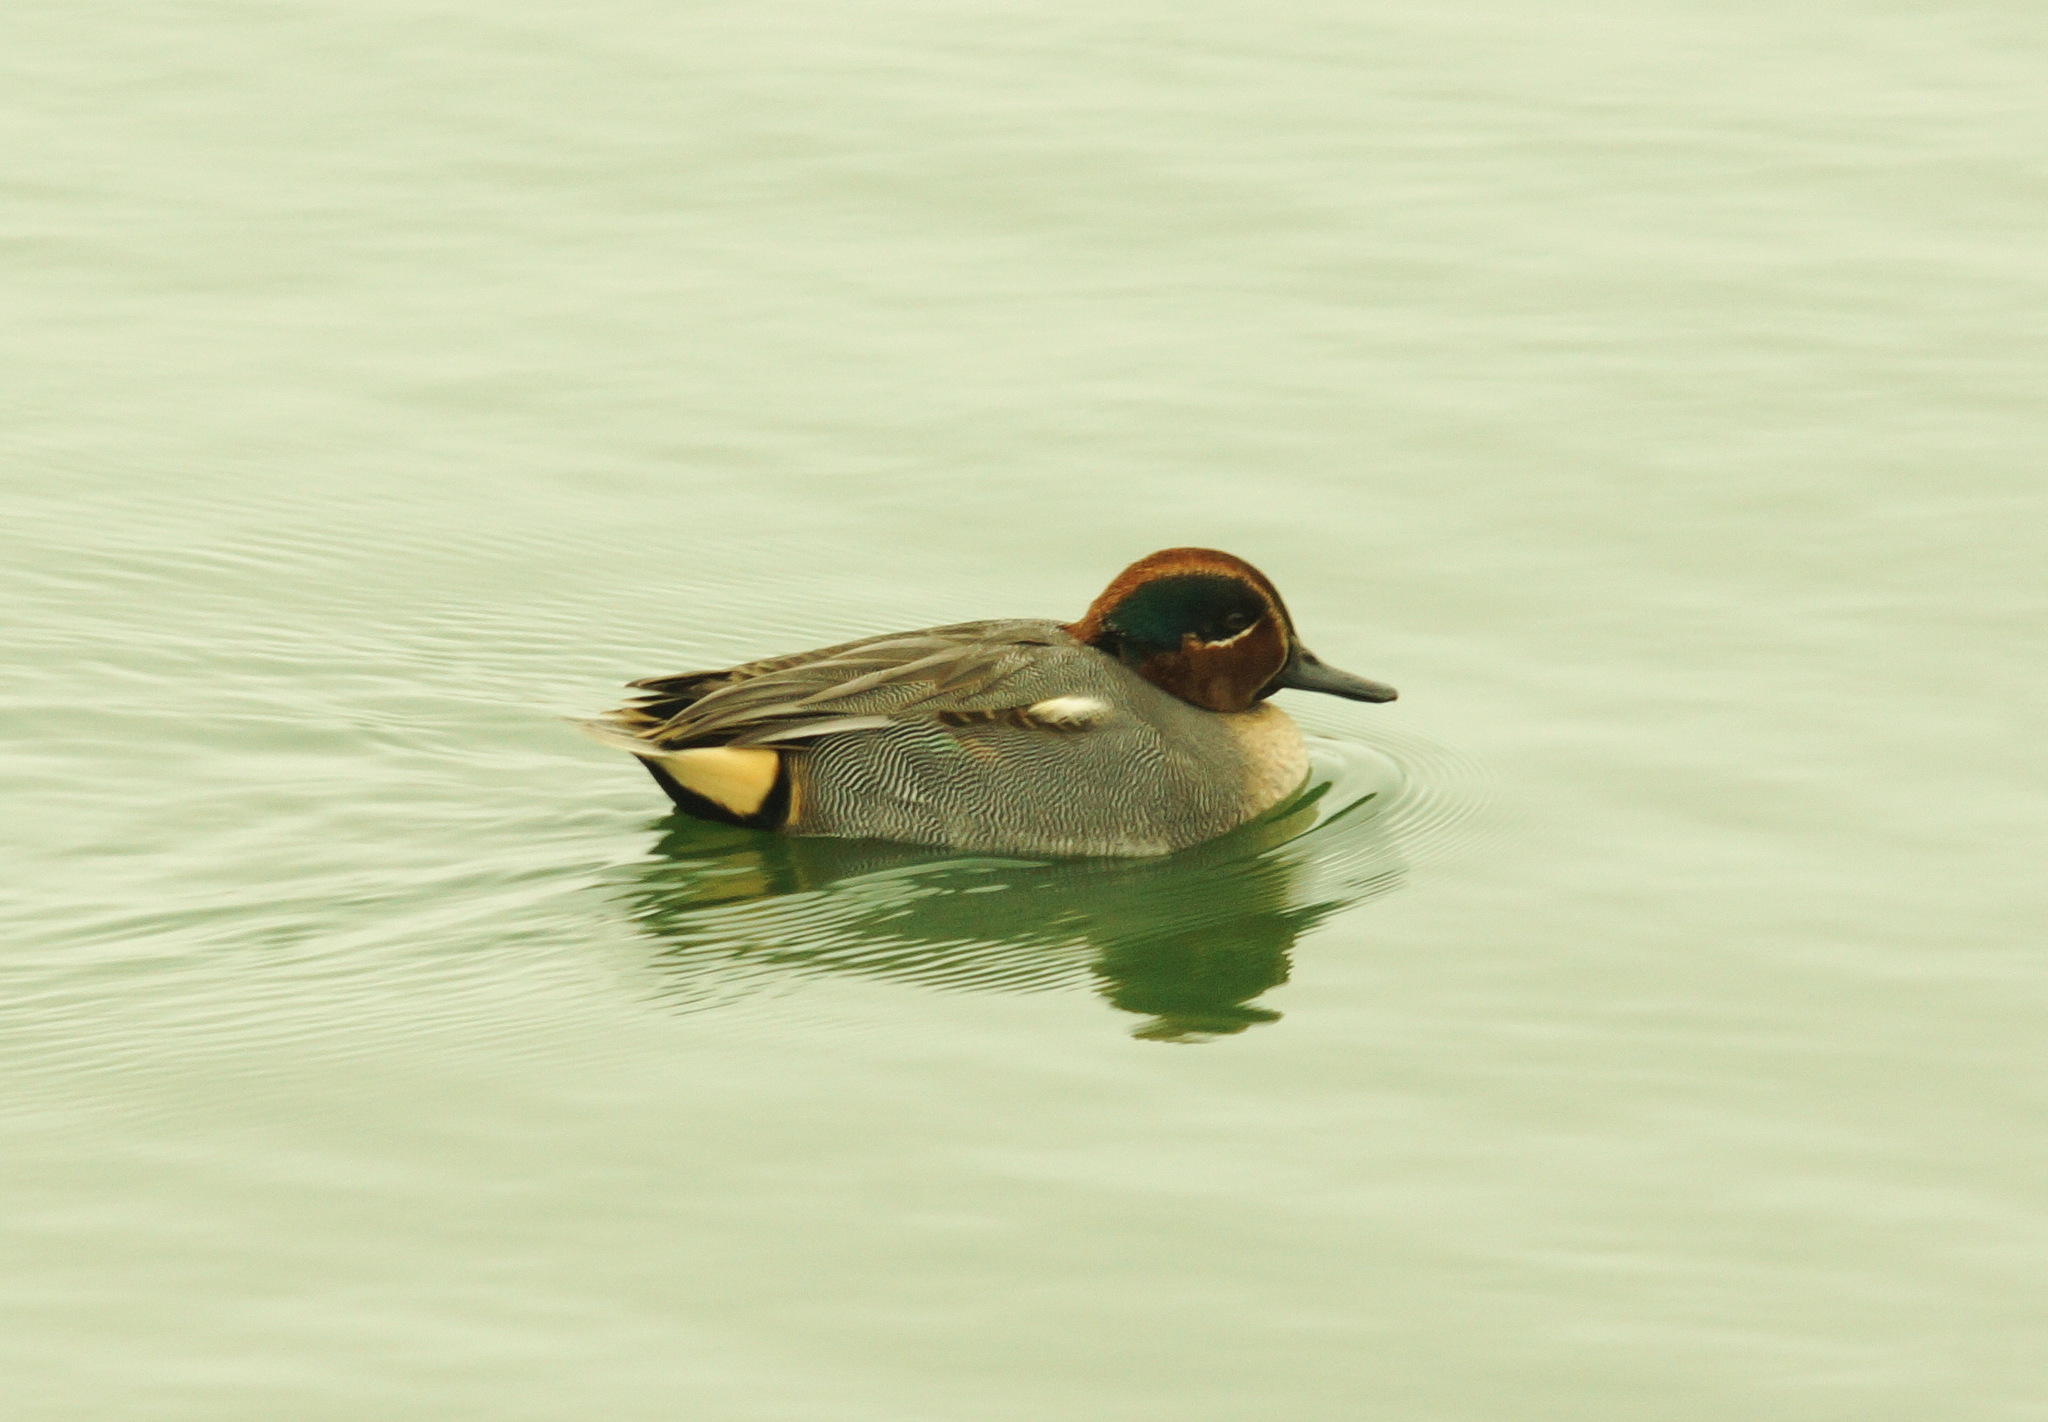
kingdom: Animalia
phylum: Chordata
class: Aves
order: Anseriformes
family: Anatidae
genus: Anas
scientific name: Anas crecca
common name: Eurasian teal
